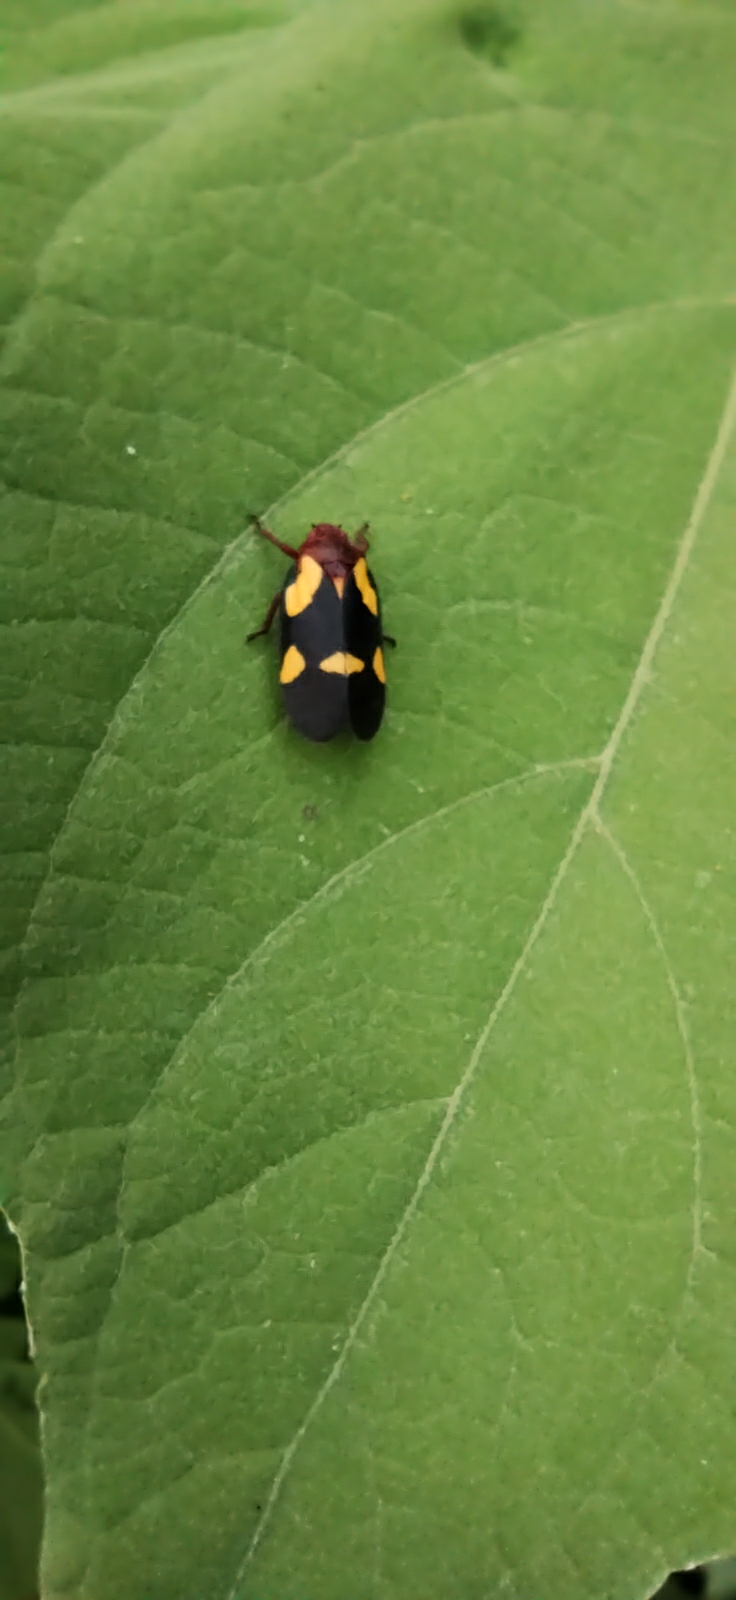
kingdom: Animalia
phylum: Arthropoda
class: Insecta
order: Hemiptera
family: Cercopidae
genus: Sphenorhina
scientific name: Sphenorhina limbata
